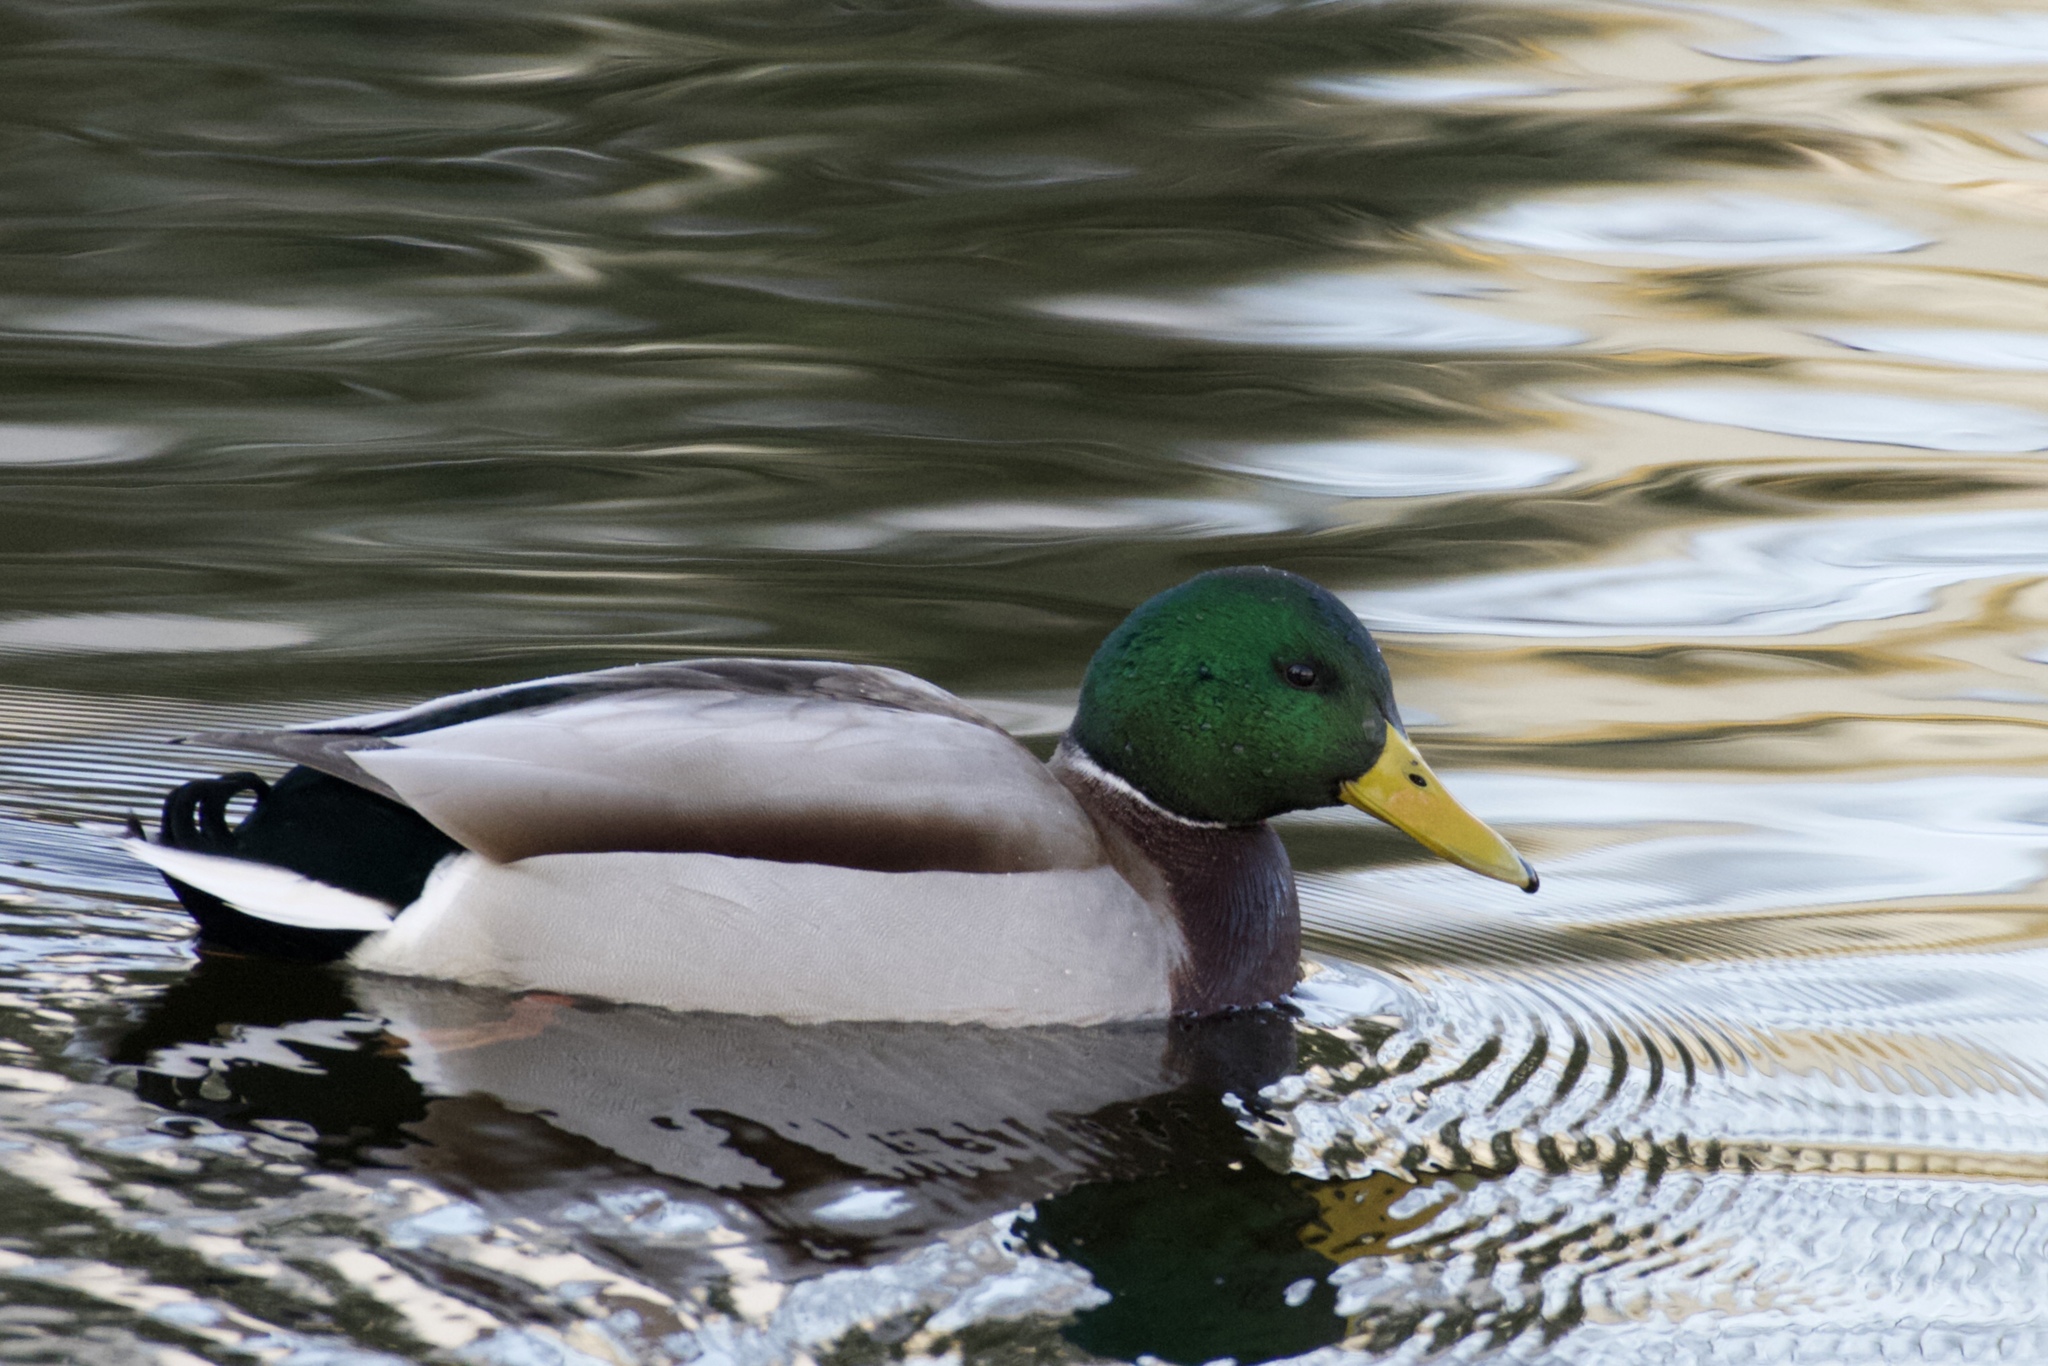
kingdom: Animalia
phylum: Chordata
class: Aves
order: Anseriformes
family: Anatidae
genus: Anas
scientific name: Anas platyrhynchos
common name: Mallard
